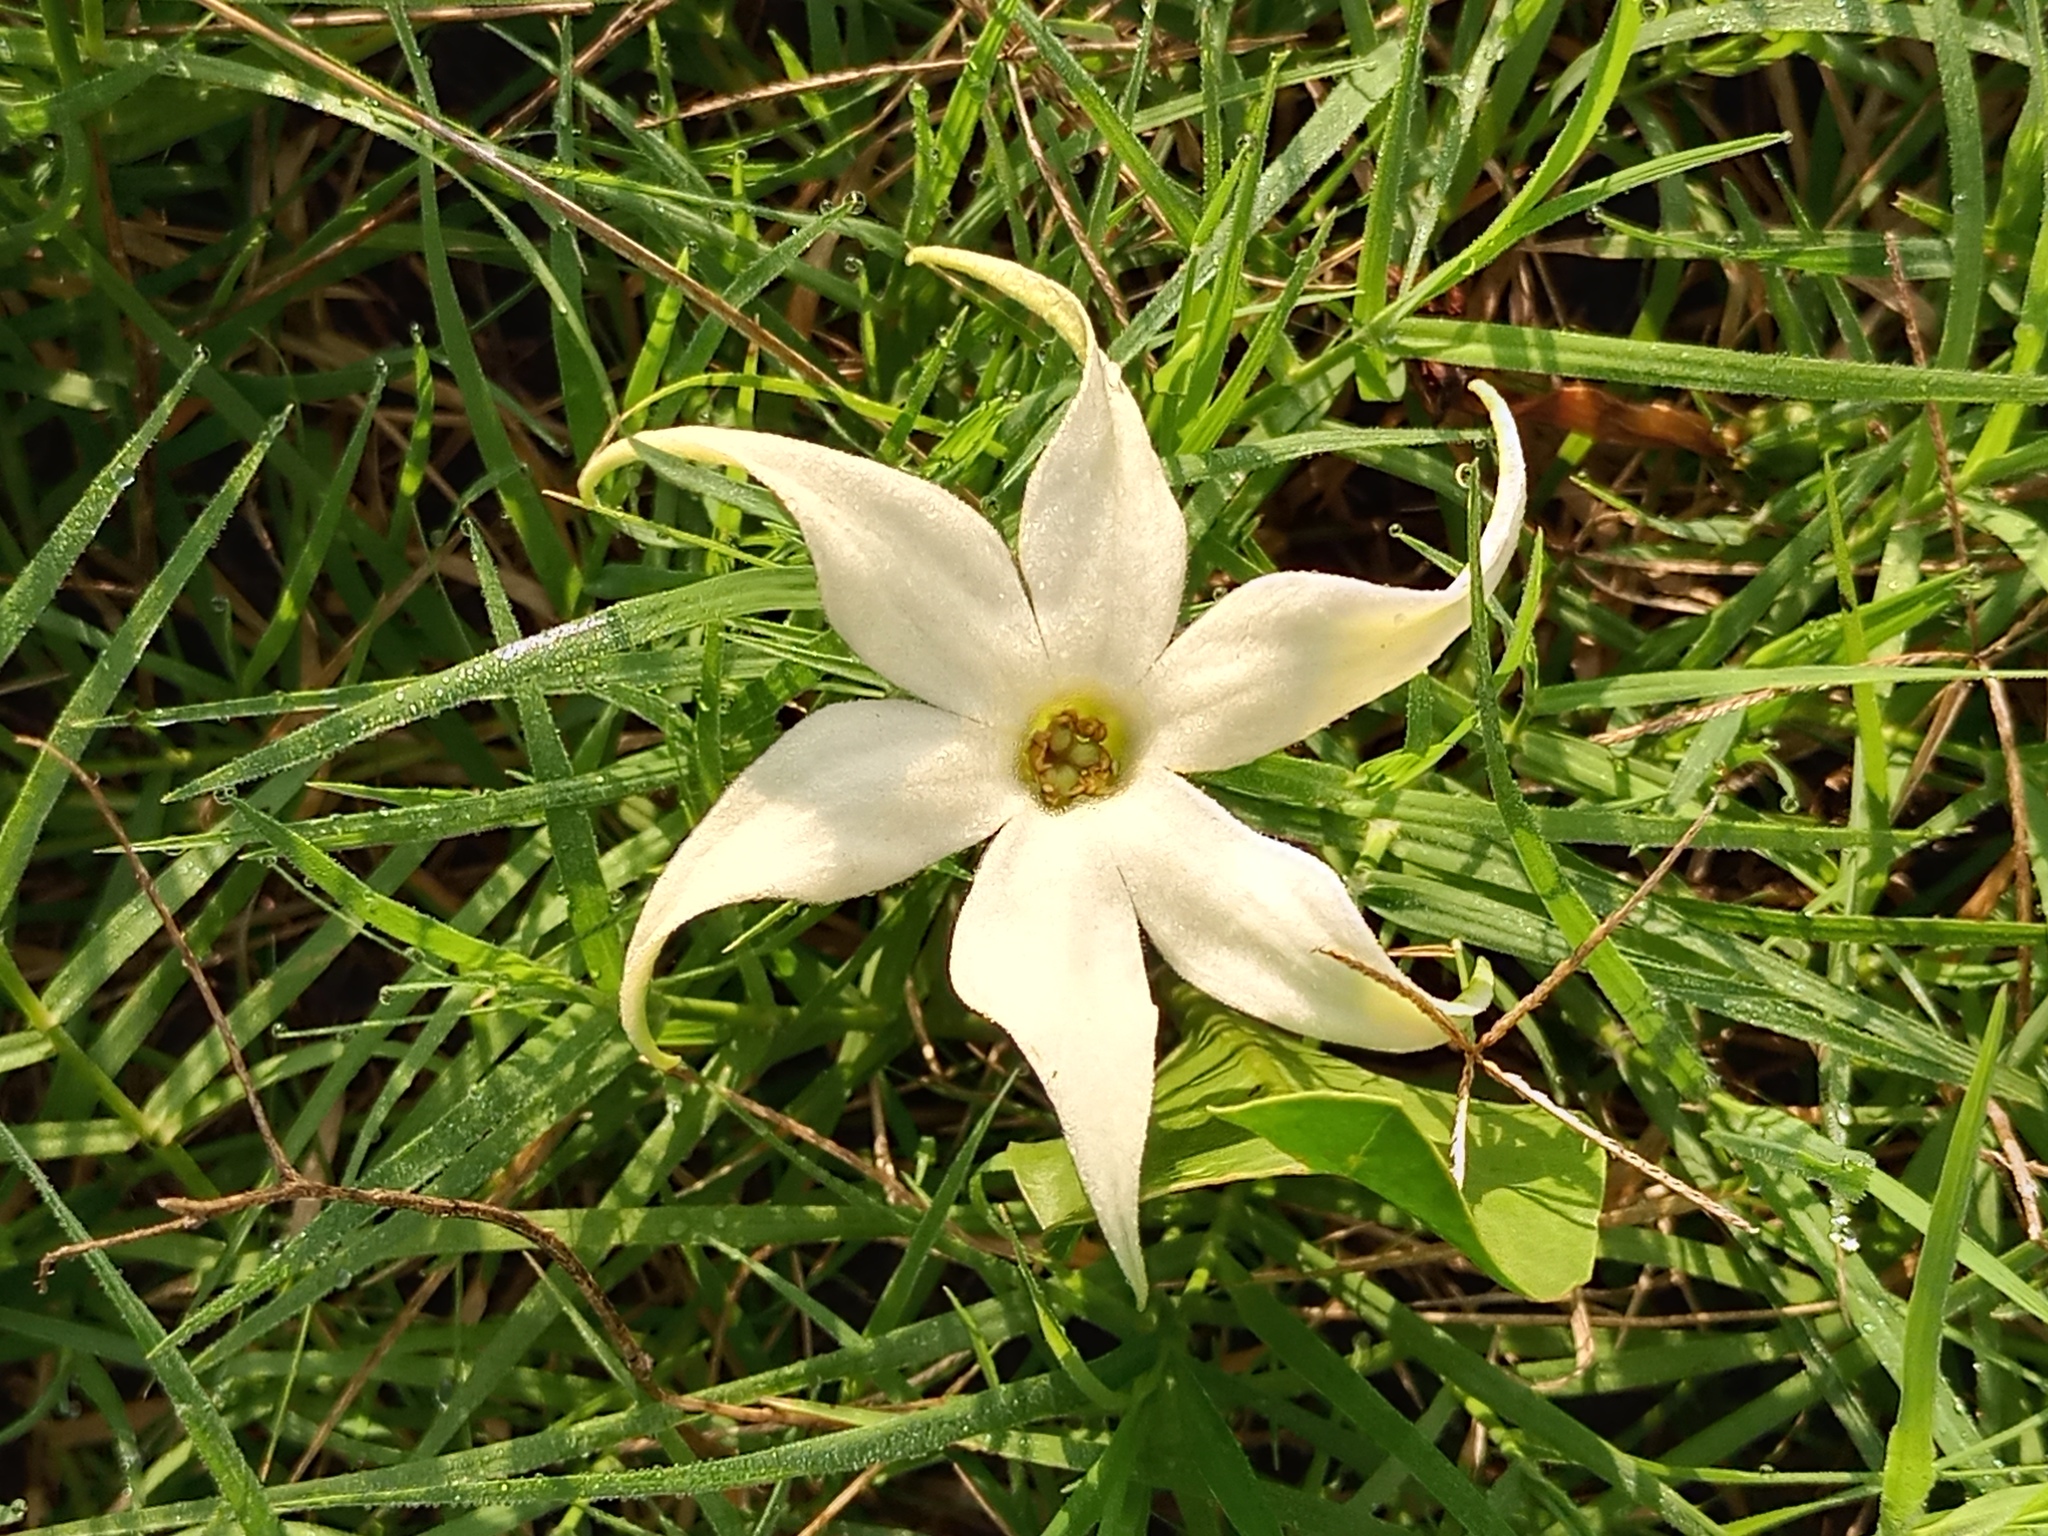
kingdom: Plantae
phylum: Tracheophyta
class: Magnoliopsida
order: Solanales
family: Solanaceae
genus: Jaborosa
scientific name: Jaborosa integrifolia
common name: Springblossom
